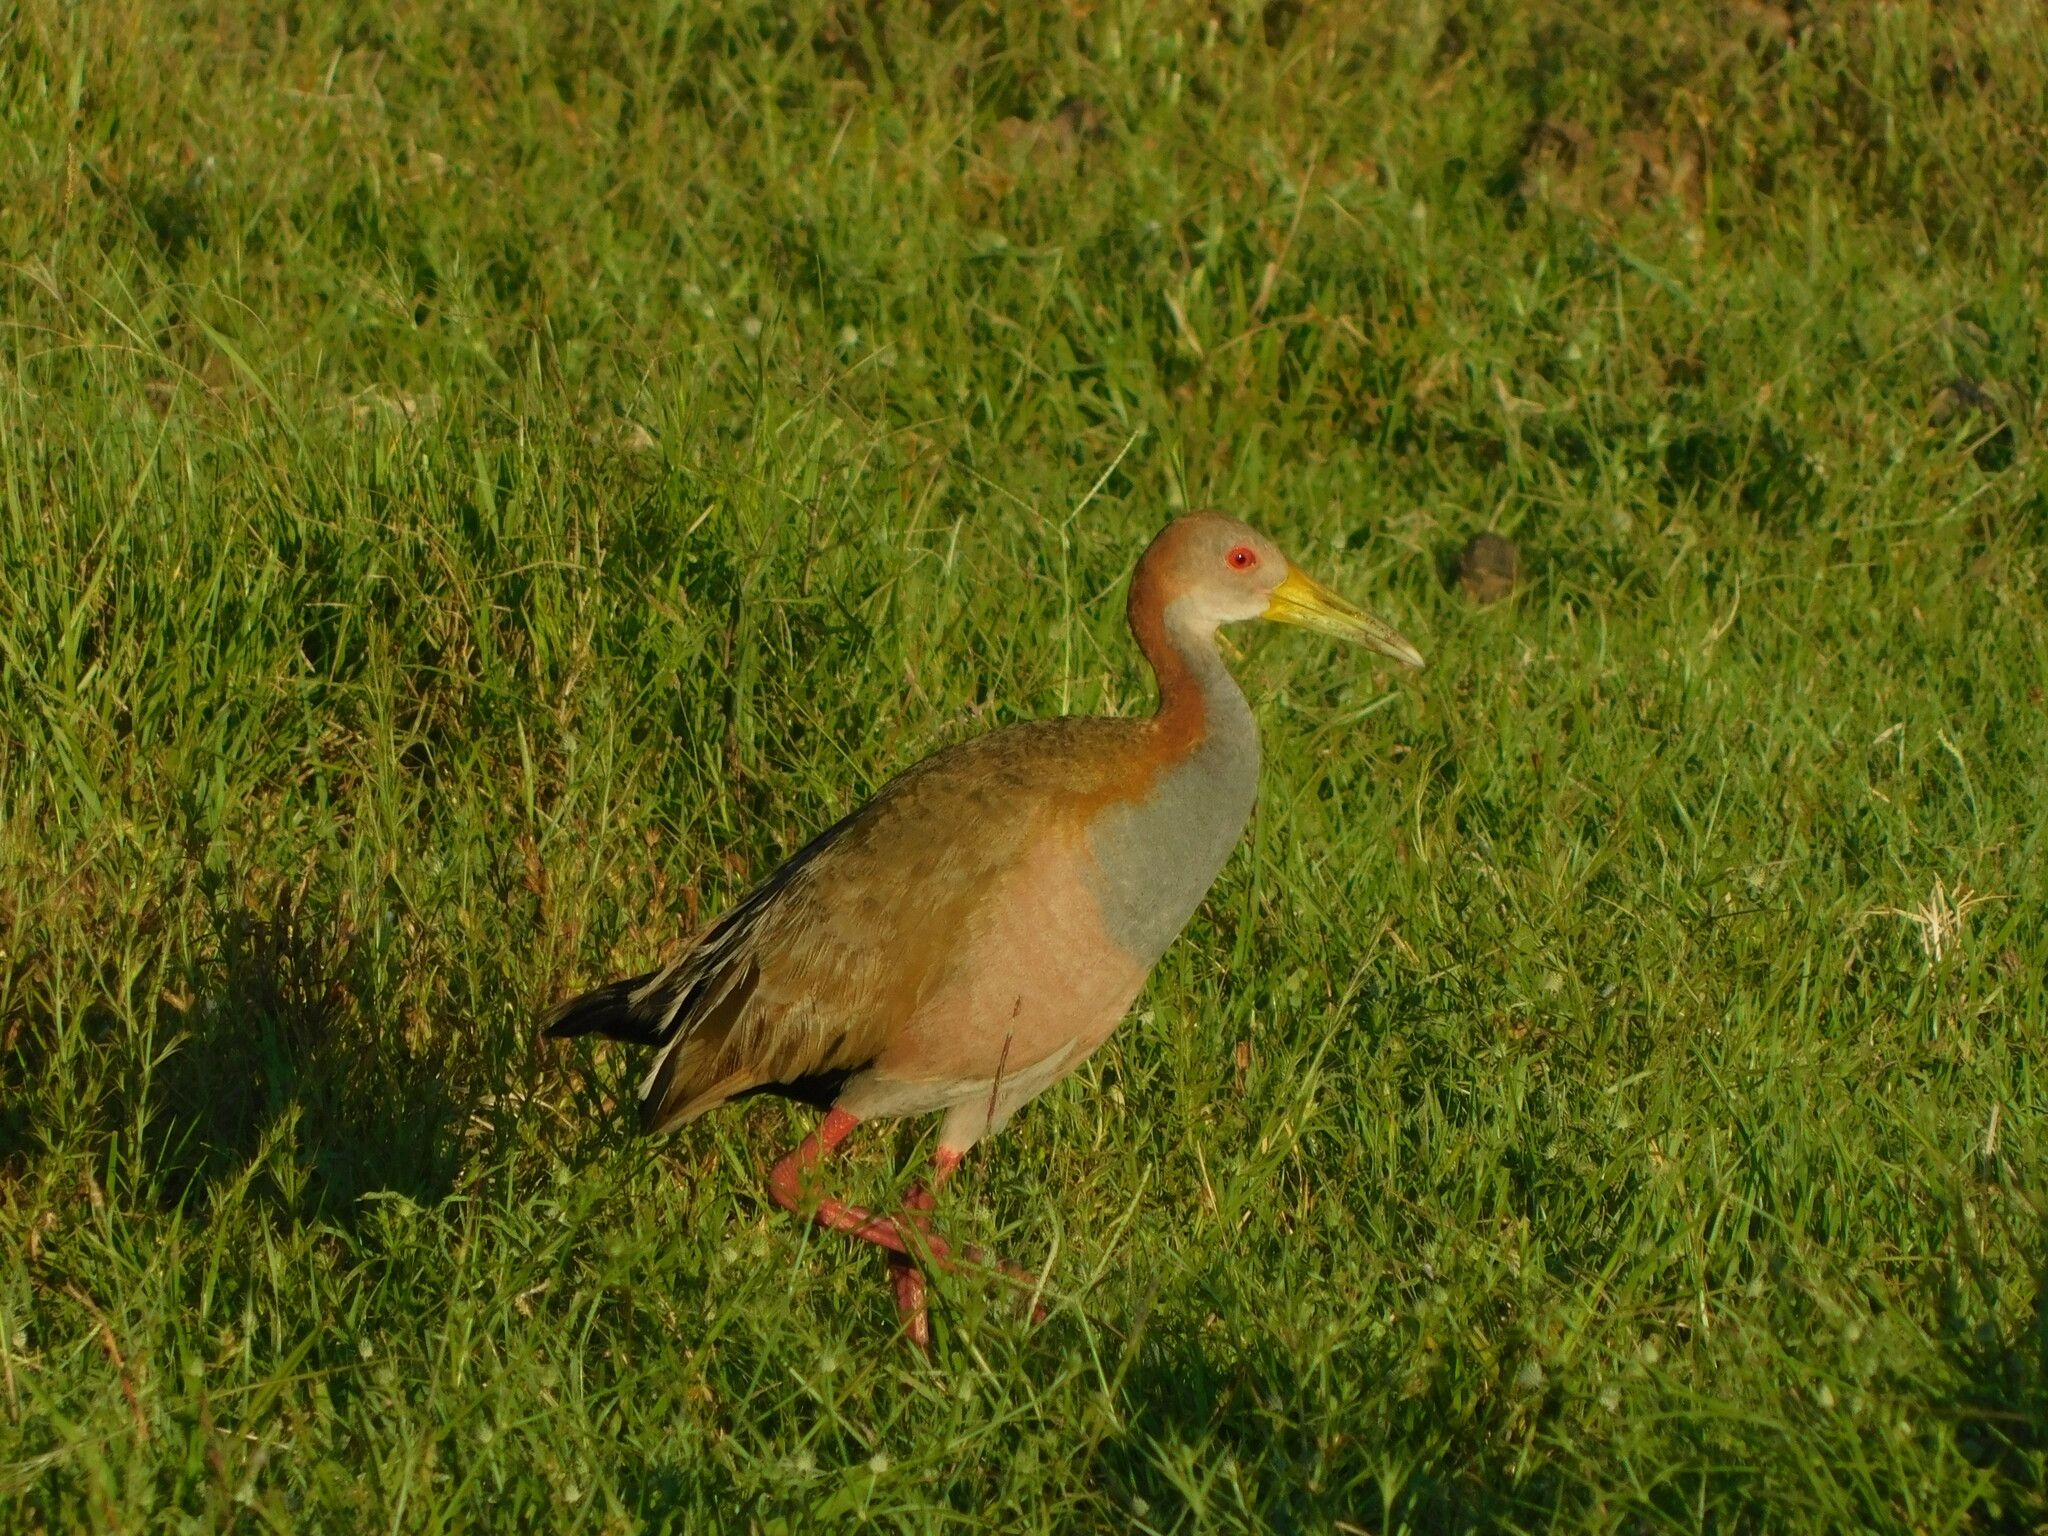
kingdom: Animalia
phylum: Chordata
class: Aves
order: Gruiformes
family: Rallidae
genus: Aramides
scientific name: Aramides ypecaha
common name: Giant wood rail
